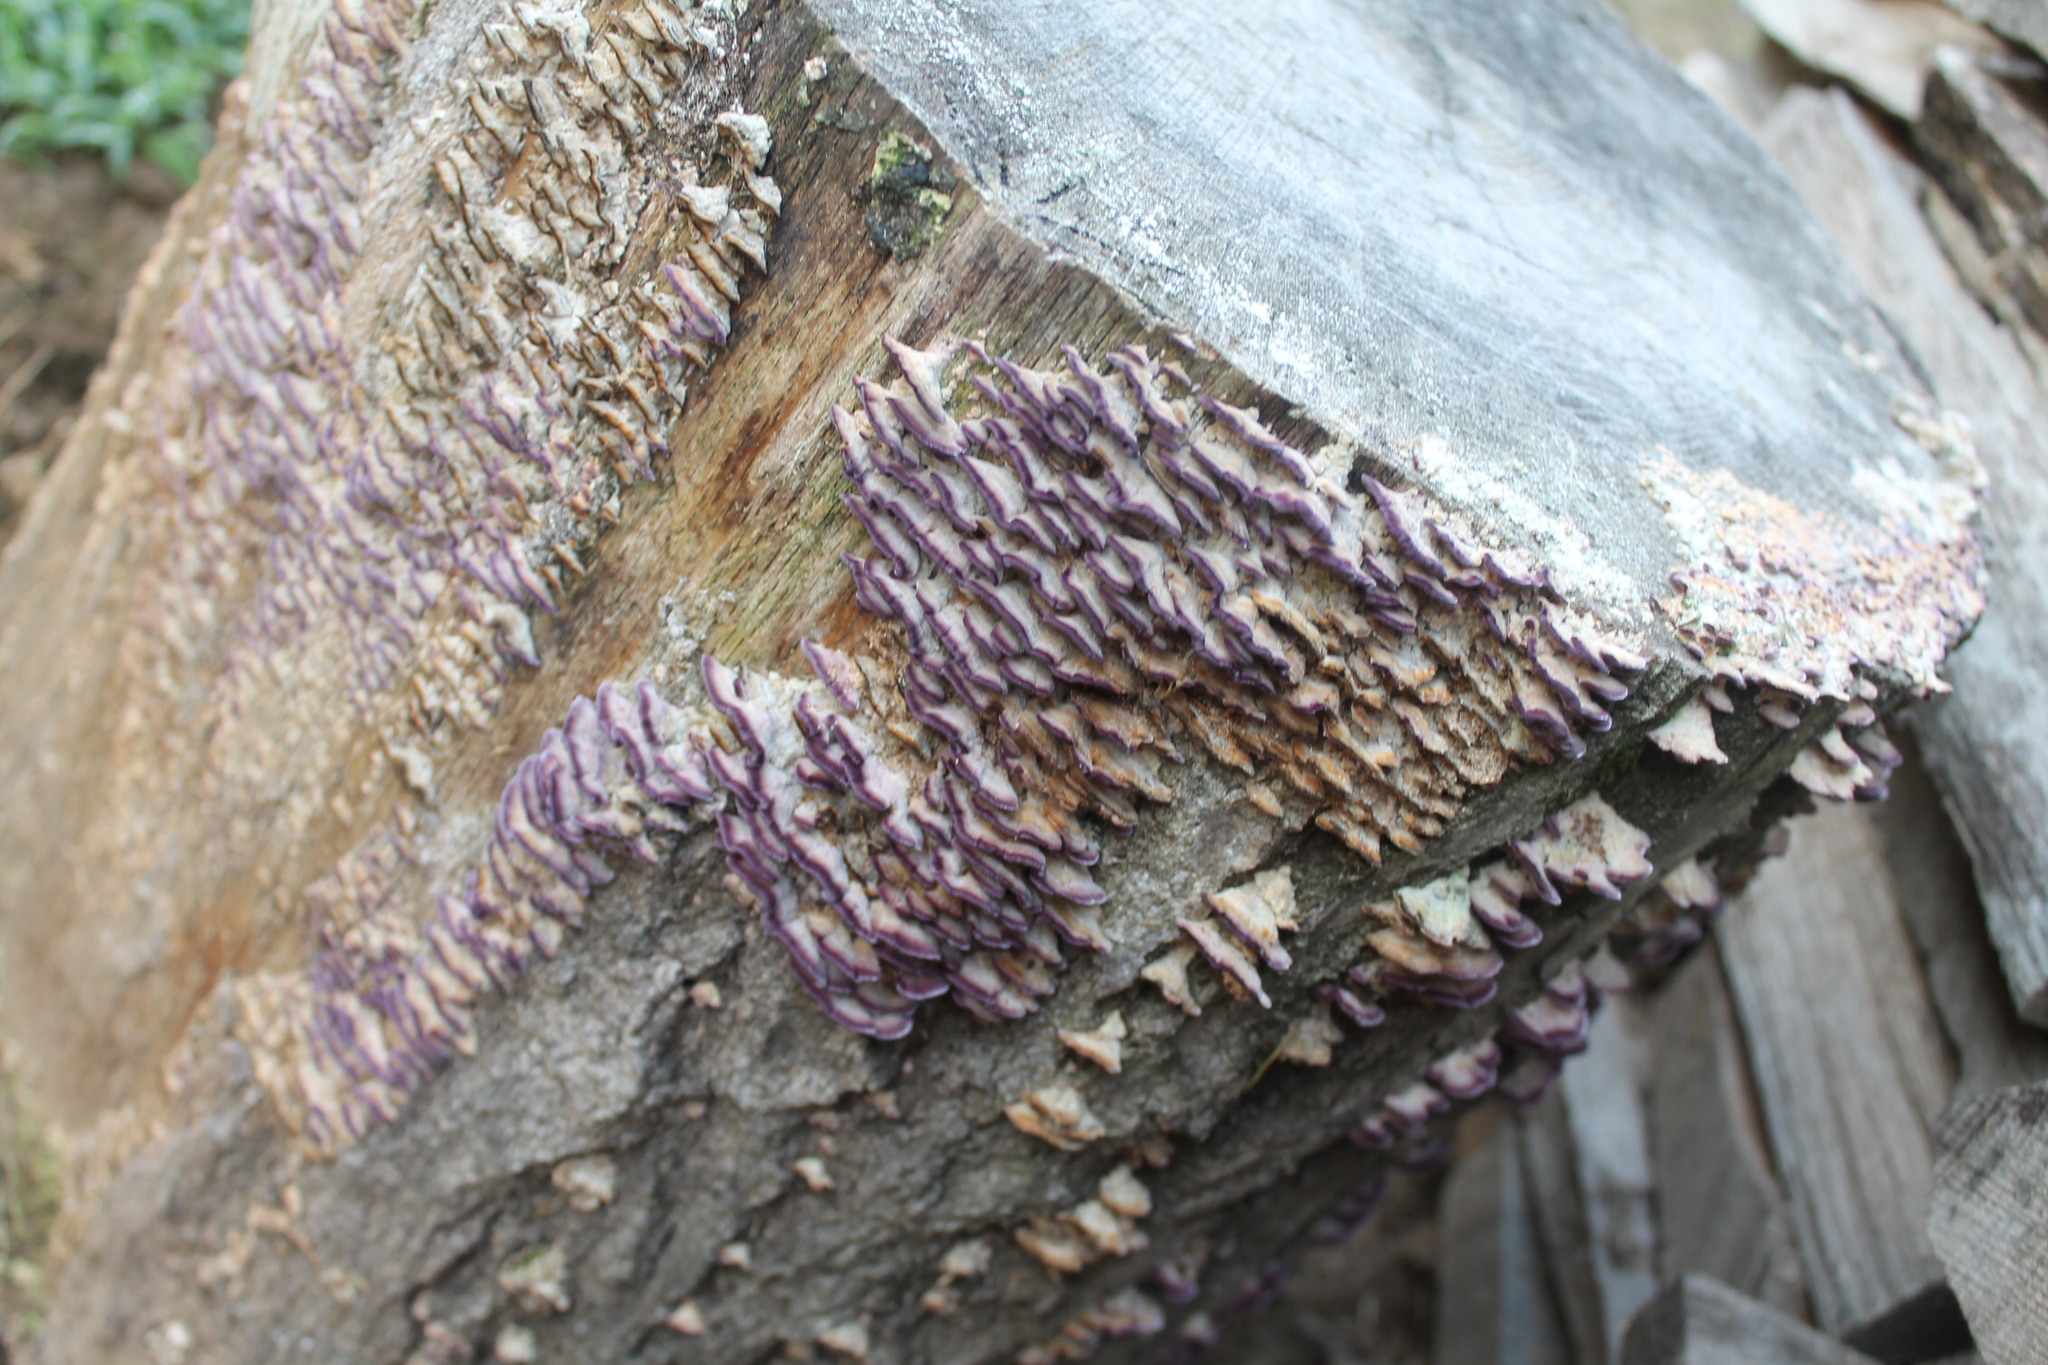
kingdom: Fungi
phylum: Basidiomycota
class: Agaricomycetes
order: Hymenochaetales
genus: Trichaptum
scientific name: Trichaptum biforme
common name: Violet-toothed polypore
